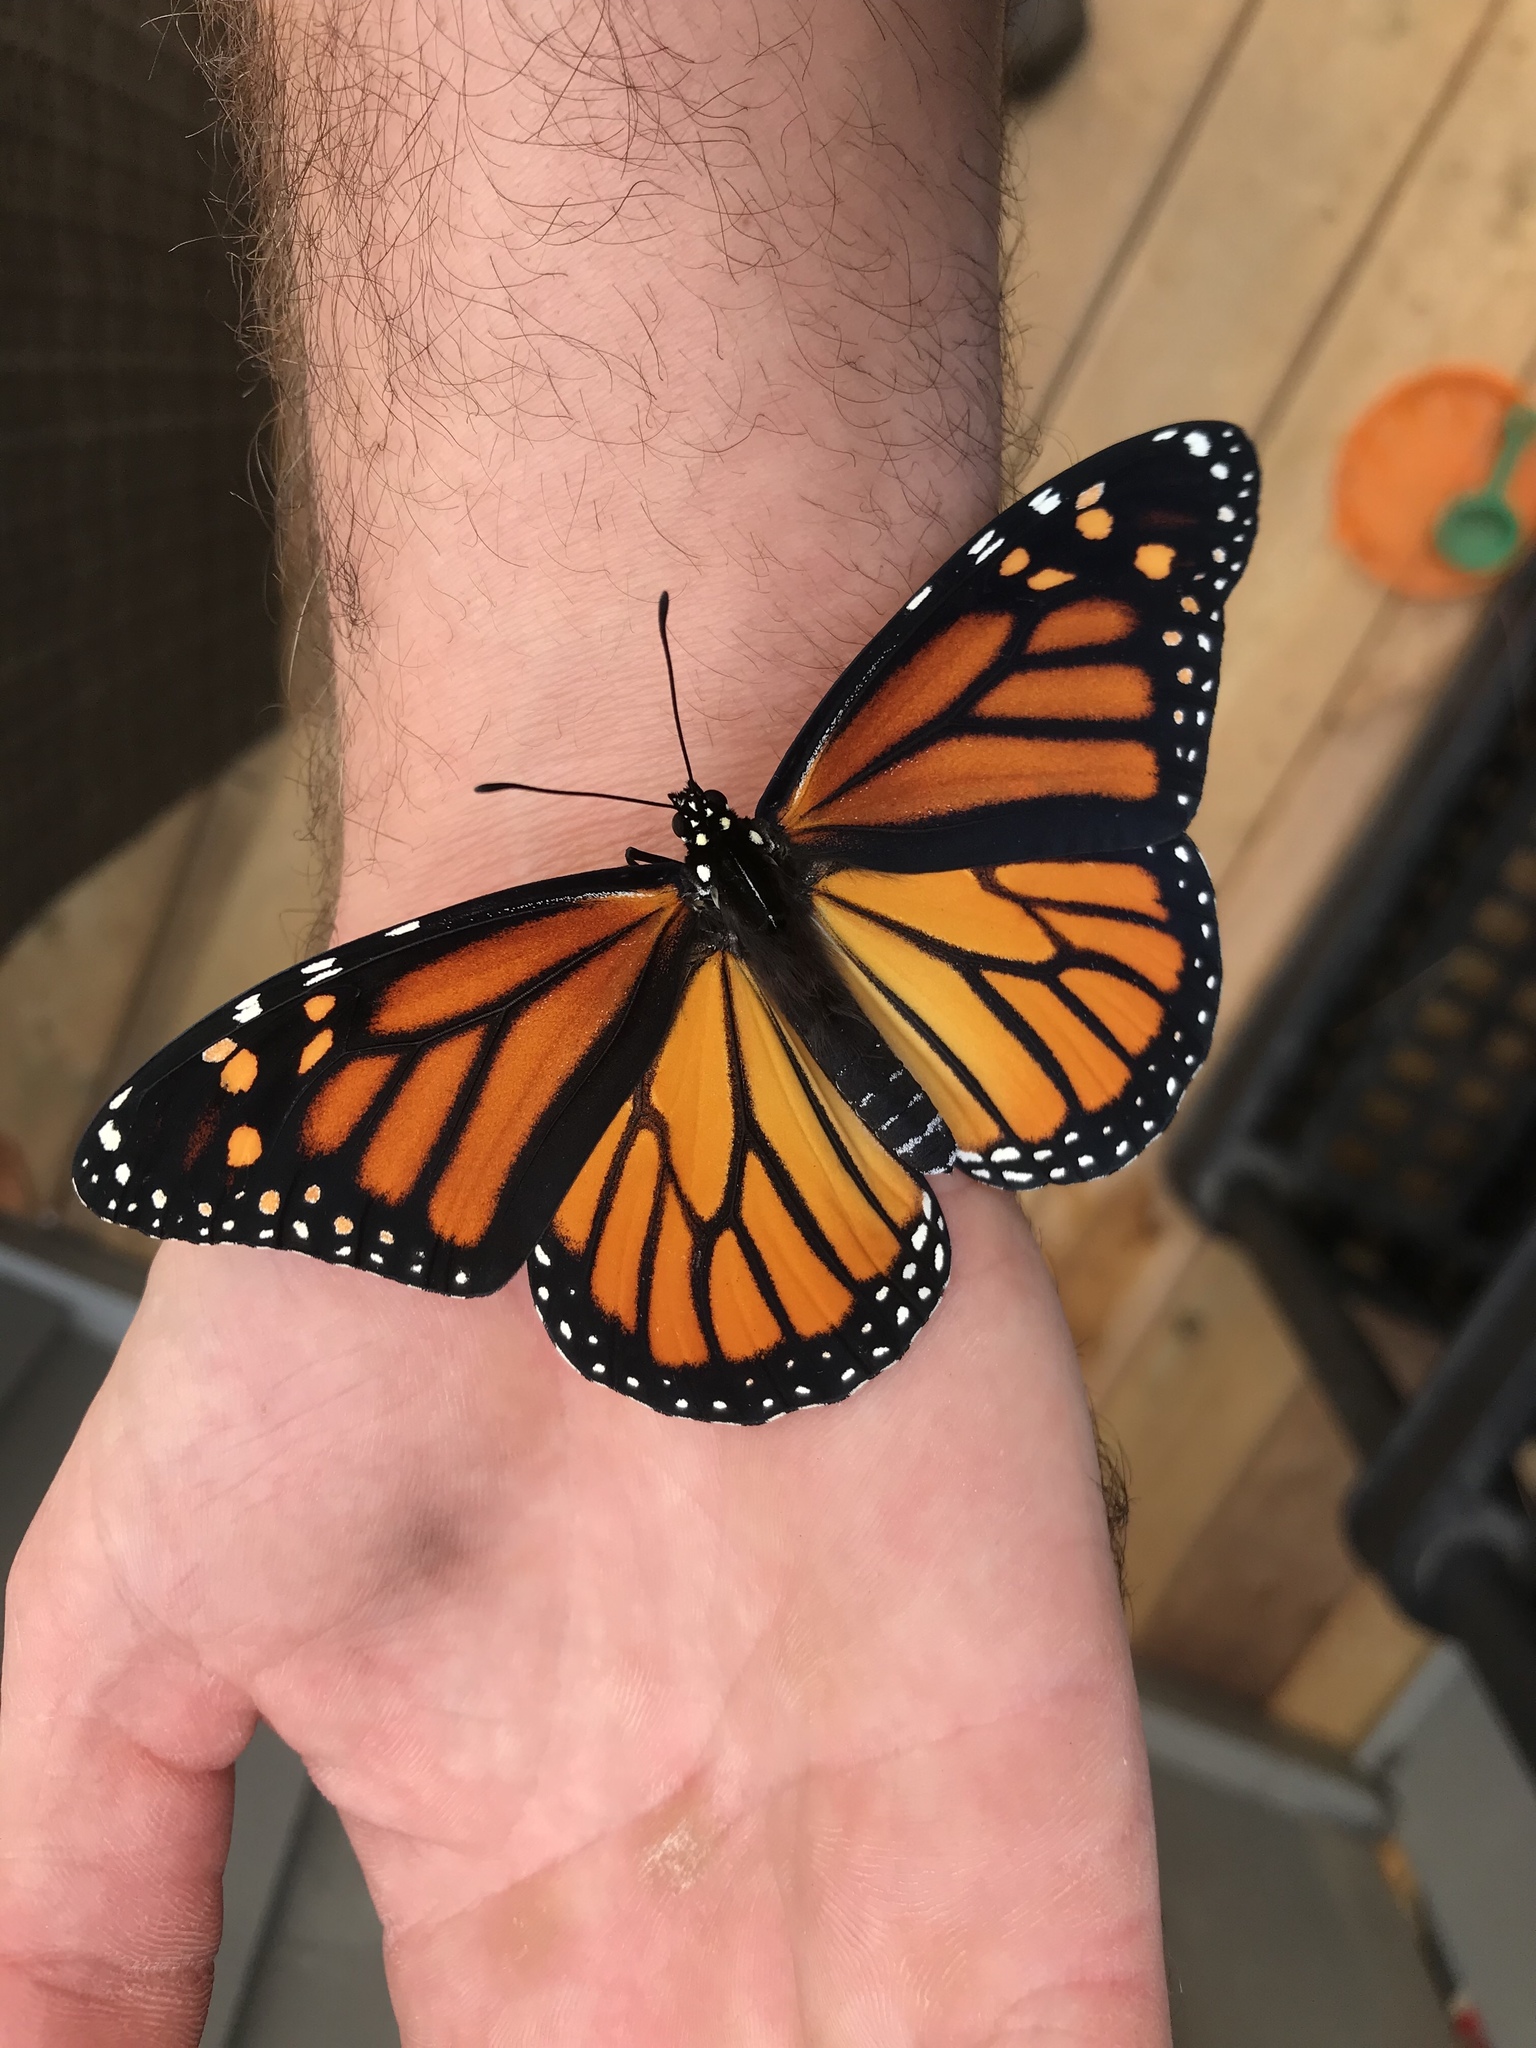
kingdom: Animalia
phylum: Arthropoda
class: Insecta
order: Lepidoptera
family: Nymphalidae
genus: Danaus
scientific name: Danaus plexippus
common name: Monarch
